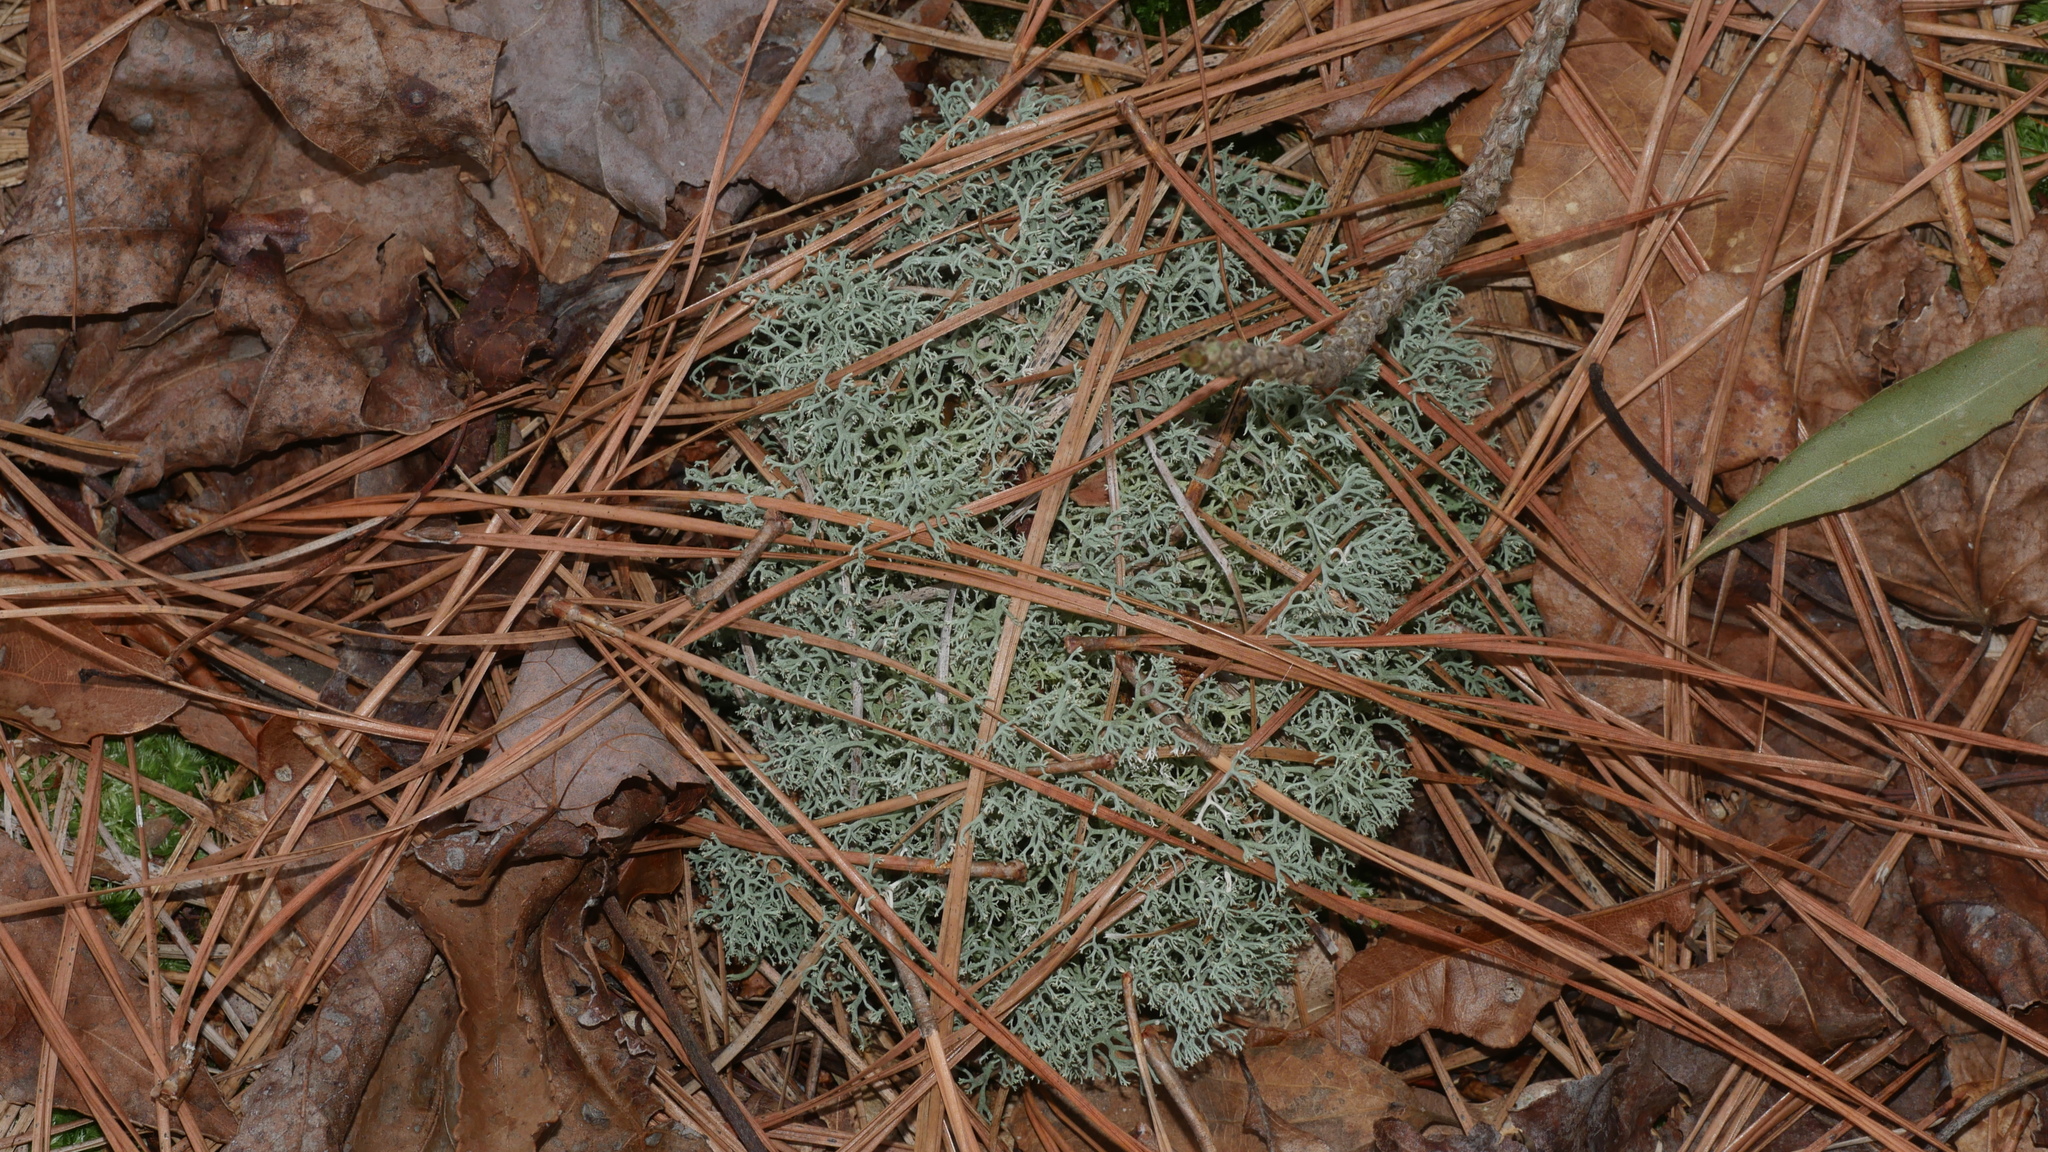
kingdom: Fungi
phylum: Ascomycota
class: Lecanoromycetes
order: Lecanorales
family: Cladoniaceae
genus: Cladonia
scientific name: Cladonia subtenuis
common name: Dixie reindeer lichen
